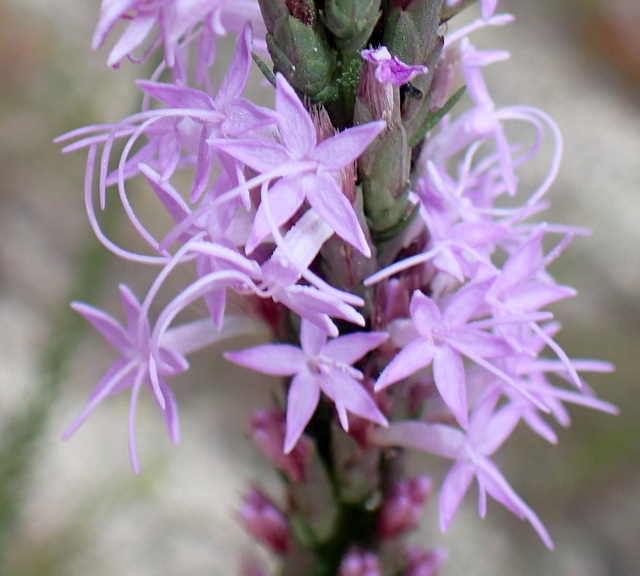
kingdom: Plantae
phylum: Tracheophyta
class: Magnoliopsida
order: Asterales
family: Asteraceae
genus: Liatris
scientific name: Liatris chapmanii
